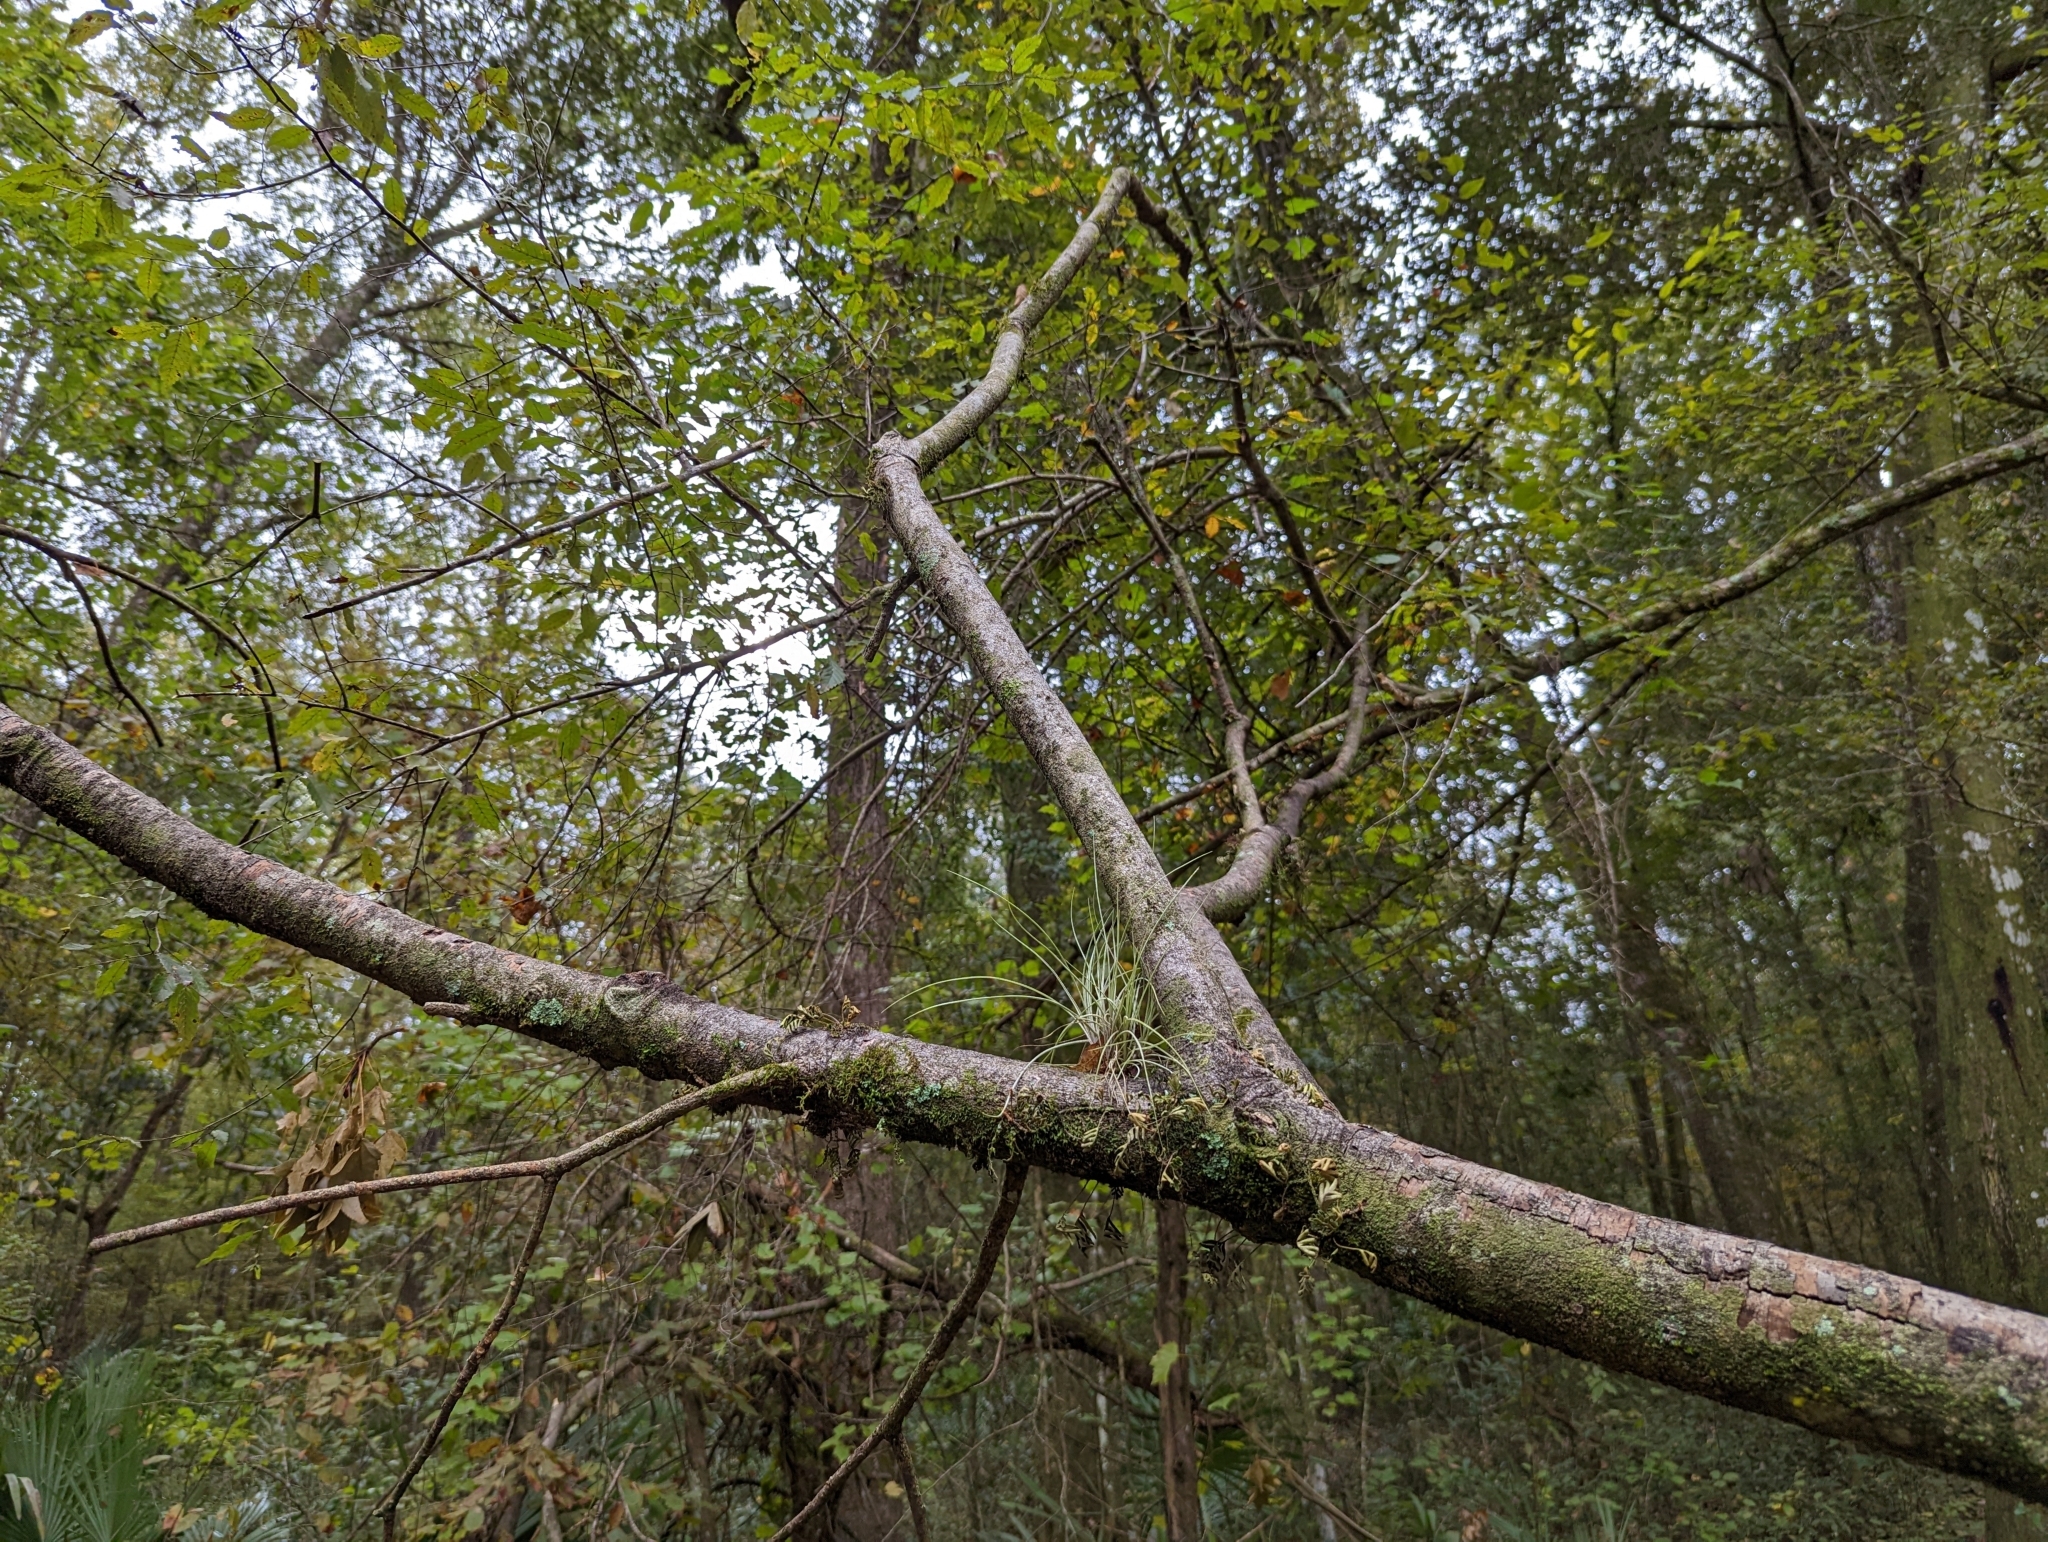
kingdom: Plantae
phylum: Tracheophyta
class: Liliopsida
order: Poales
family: Bromeliaceae
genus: Tillandsia
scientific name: Tillandsia bartramii
